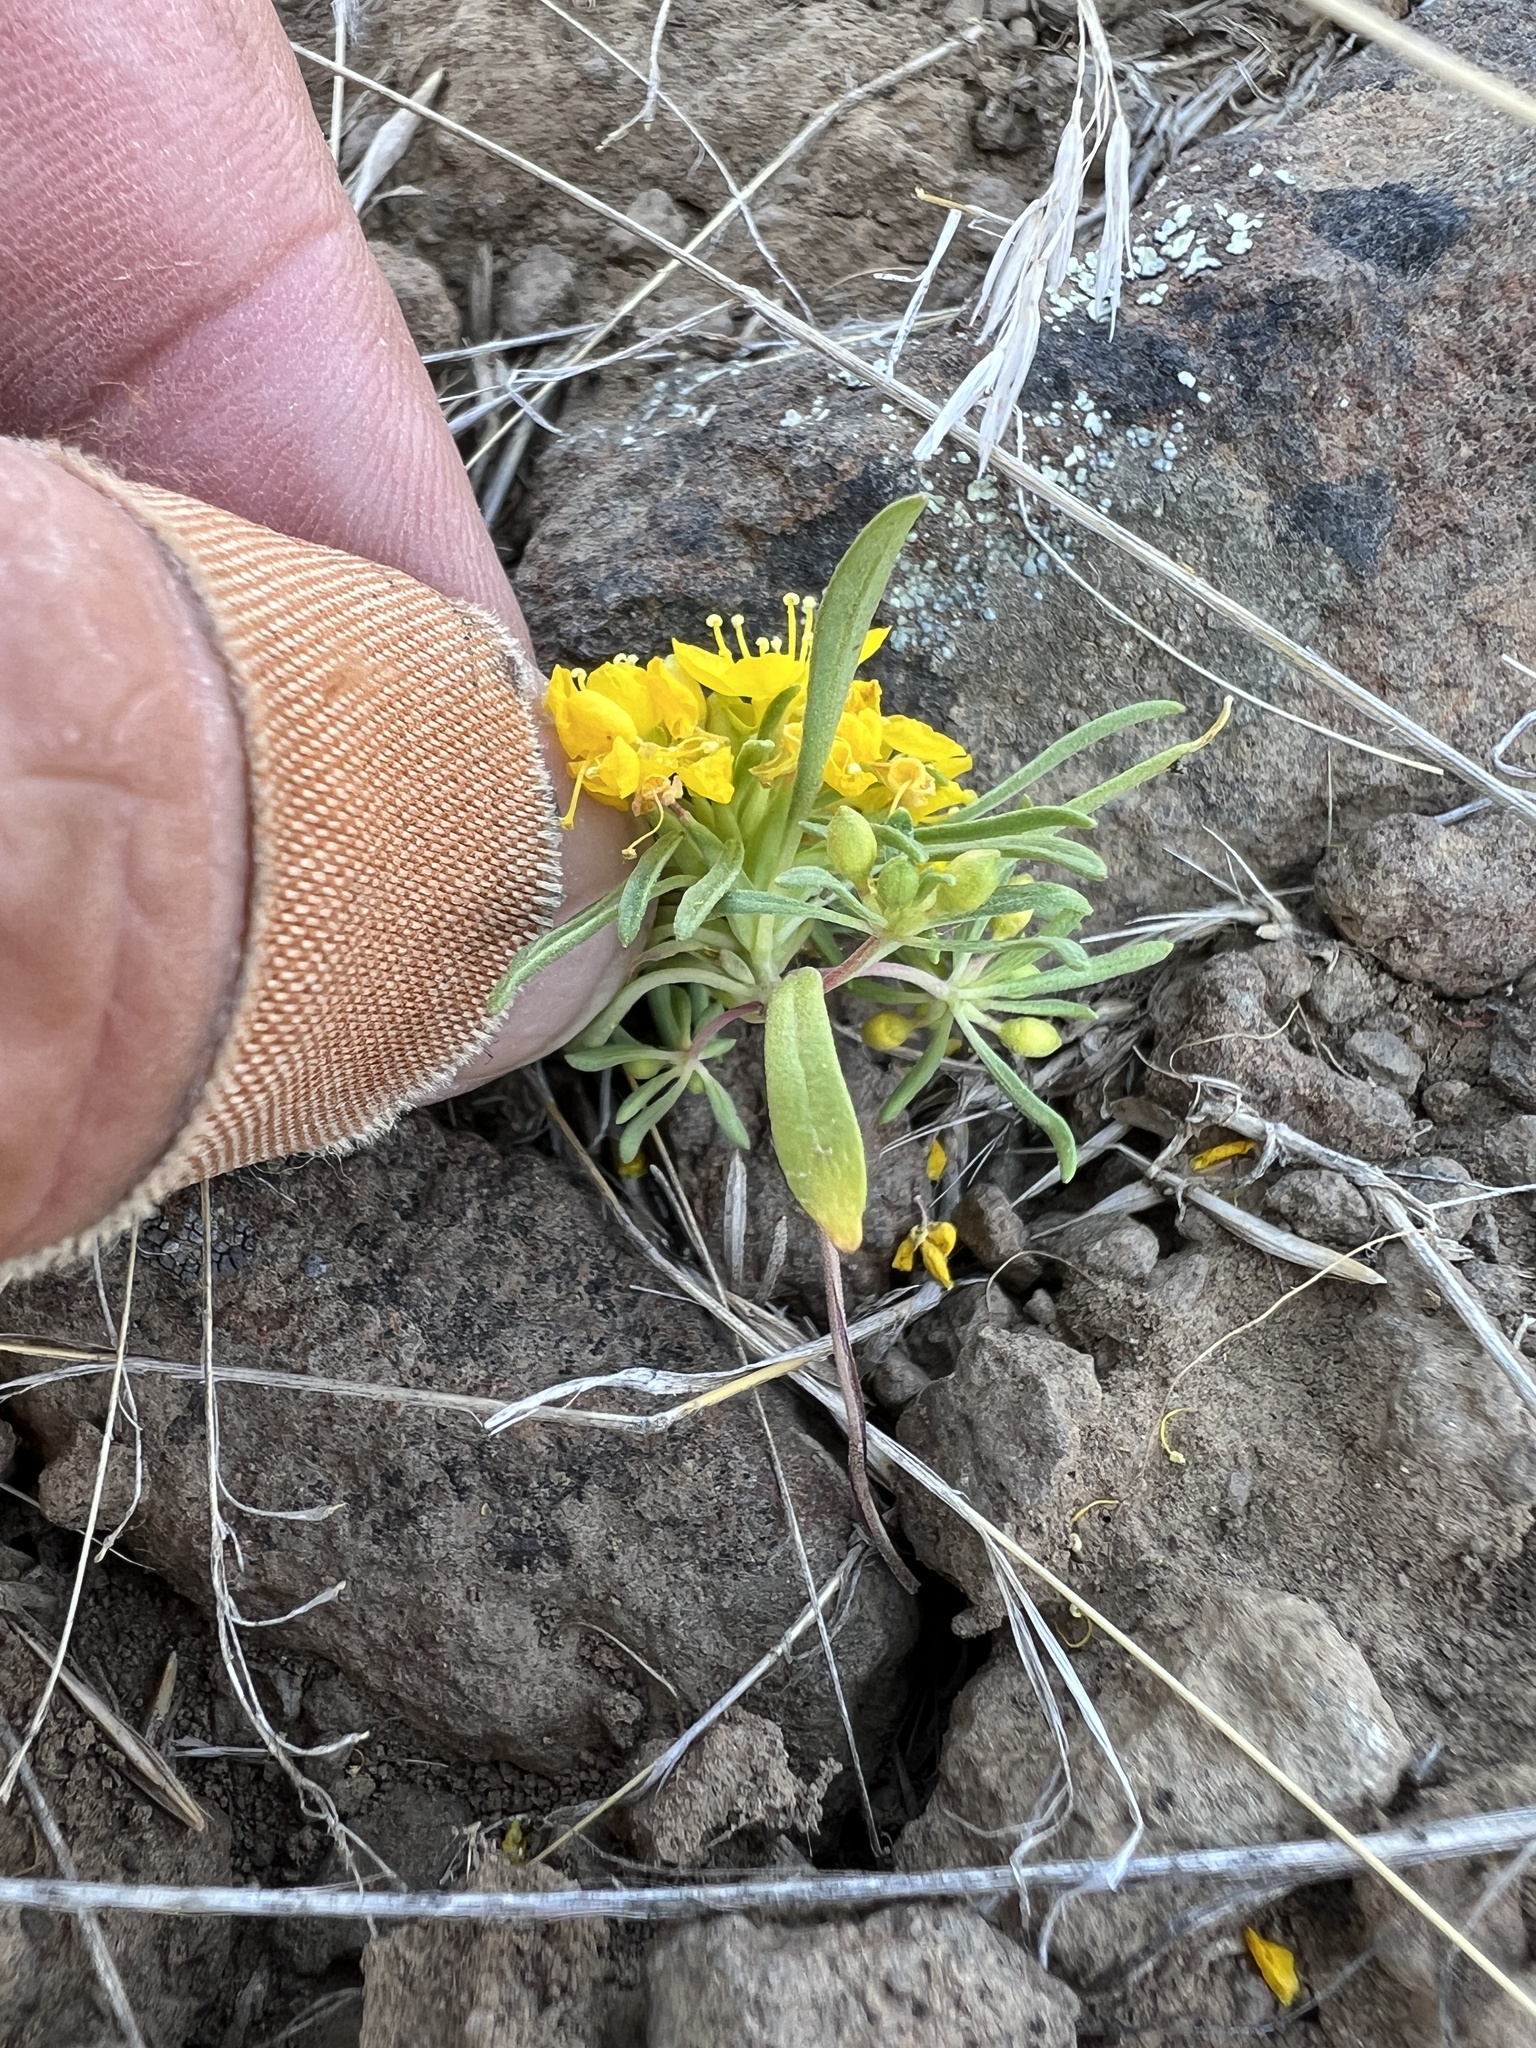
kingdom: Plantae
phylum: Tracheophyta
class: Magnoliopsida
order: Myrtales
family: Onagraceae
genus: Neoholmgrenia
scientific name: Neoholmgrenia hilgardii
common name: Hilgard's suncup
